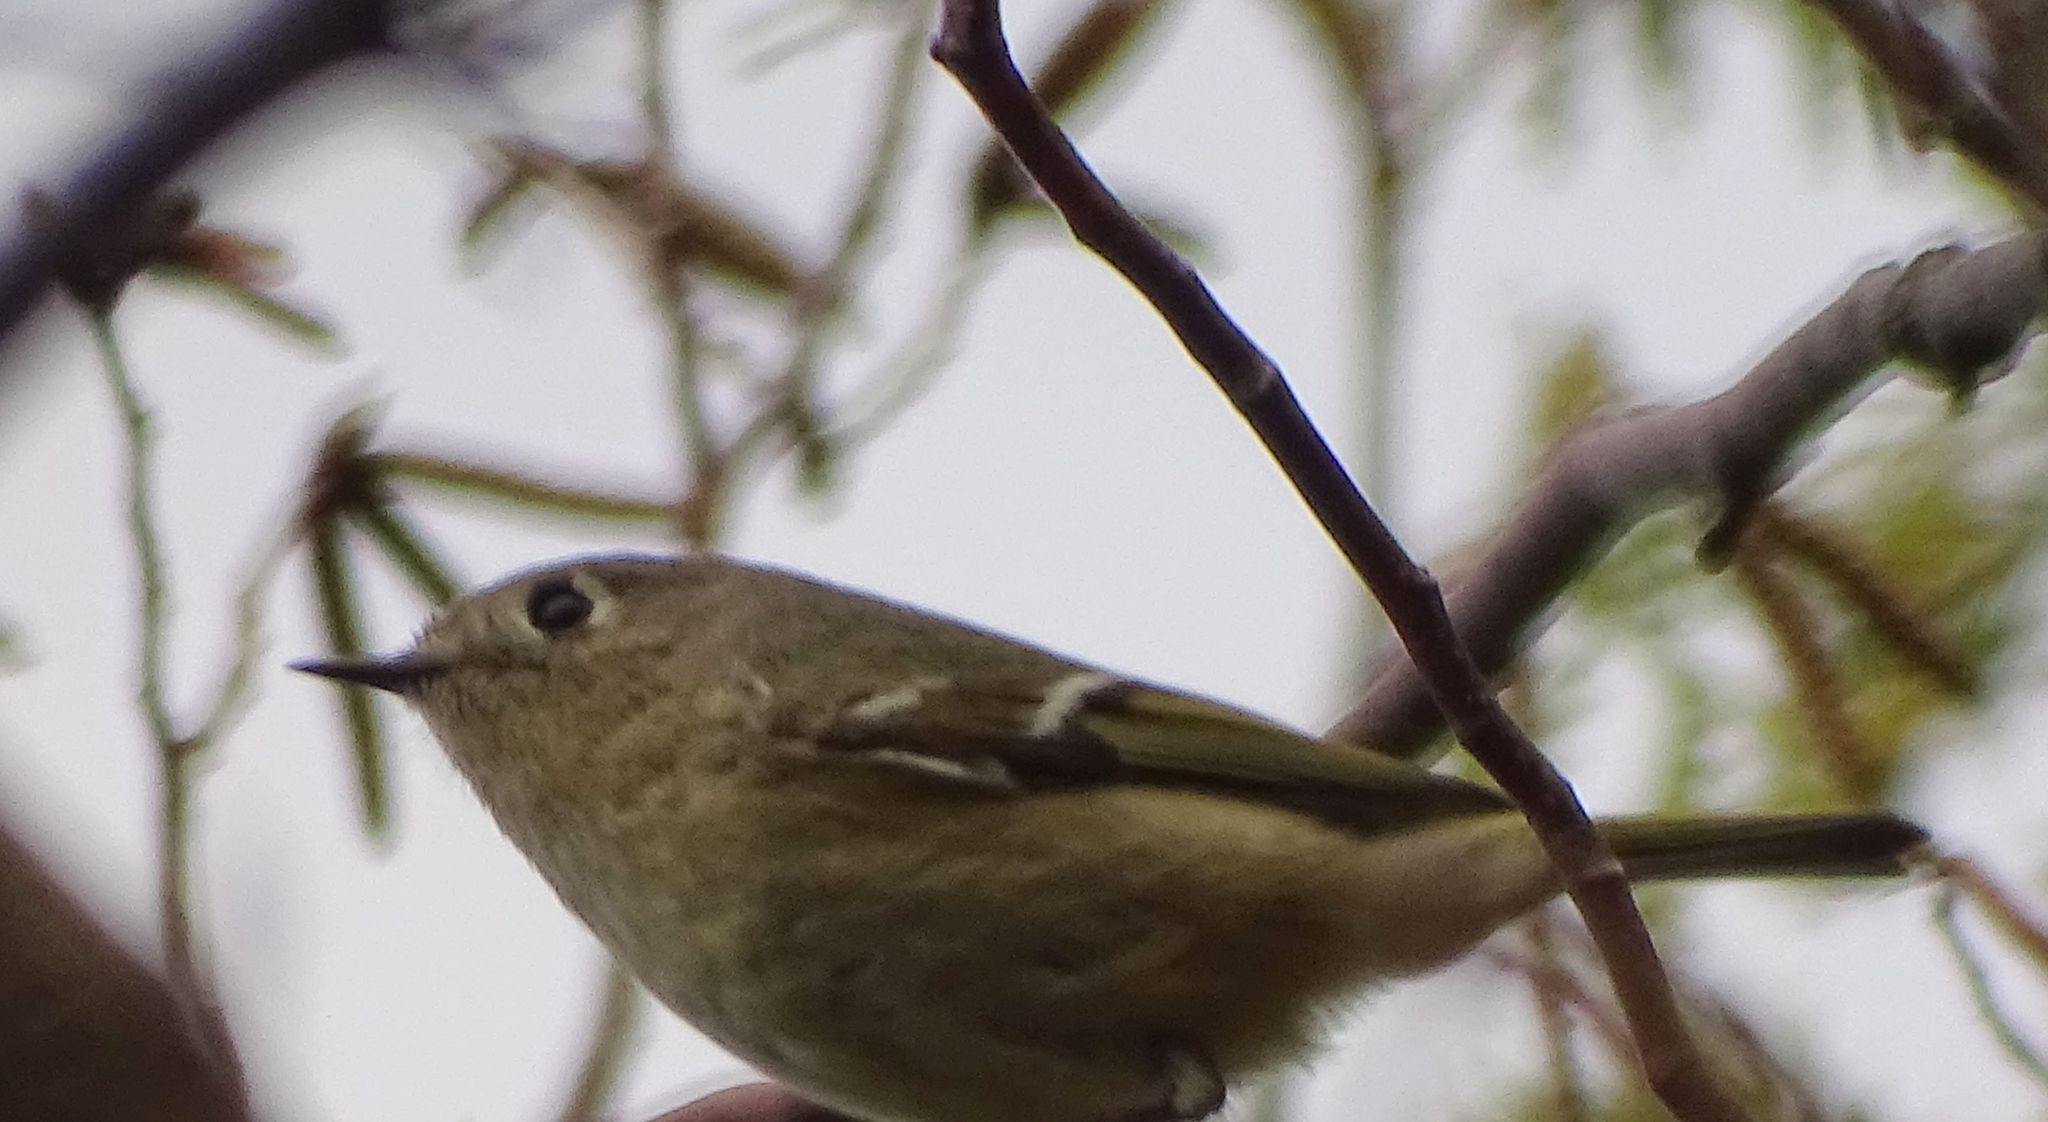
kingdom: Animalia
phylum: Chordata
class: Aves
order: Passeriformes
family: Regulidae
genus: Regulus
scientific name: Regulus calendula
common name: Ruby-crowned kinglet
